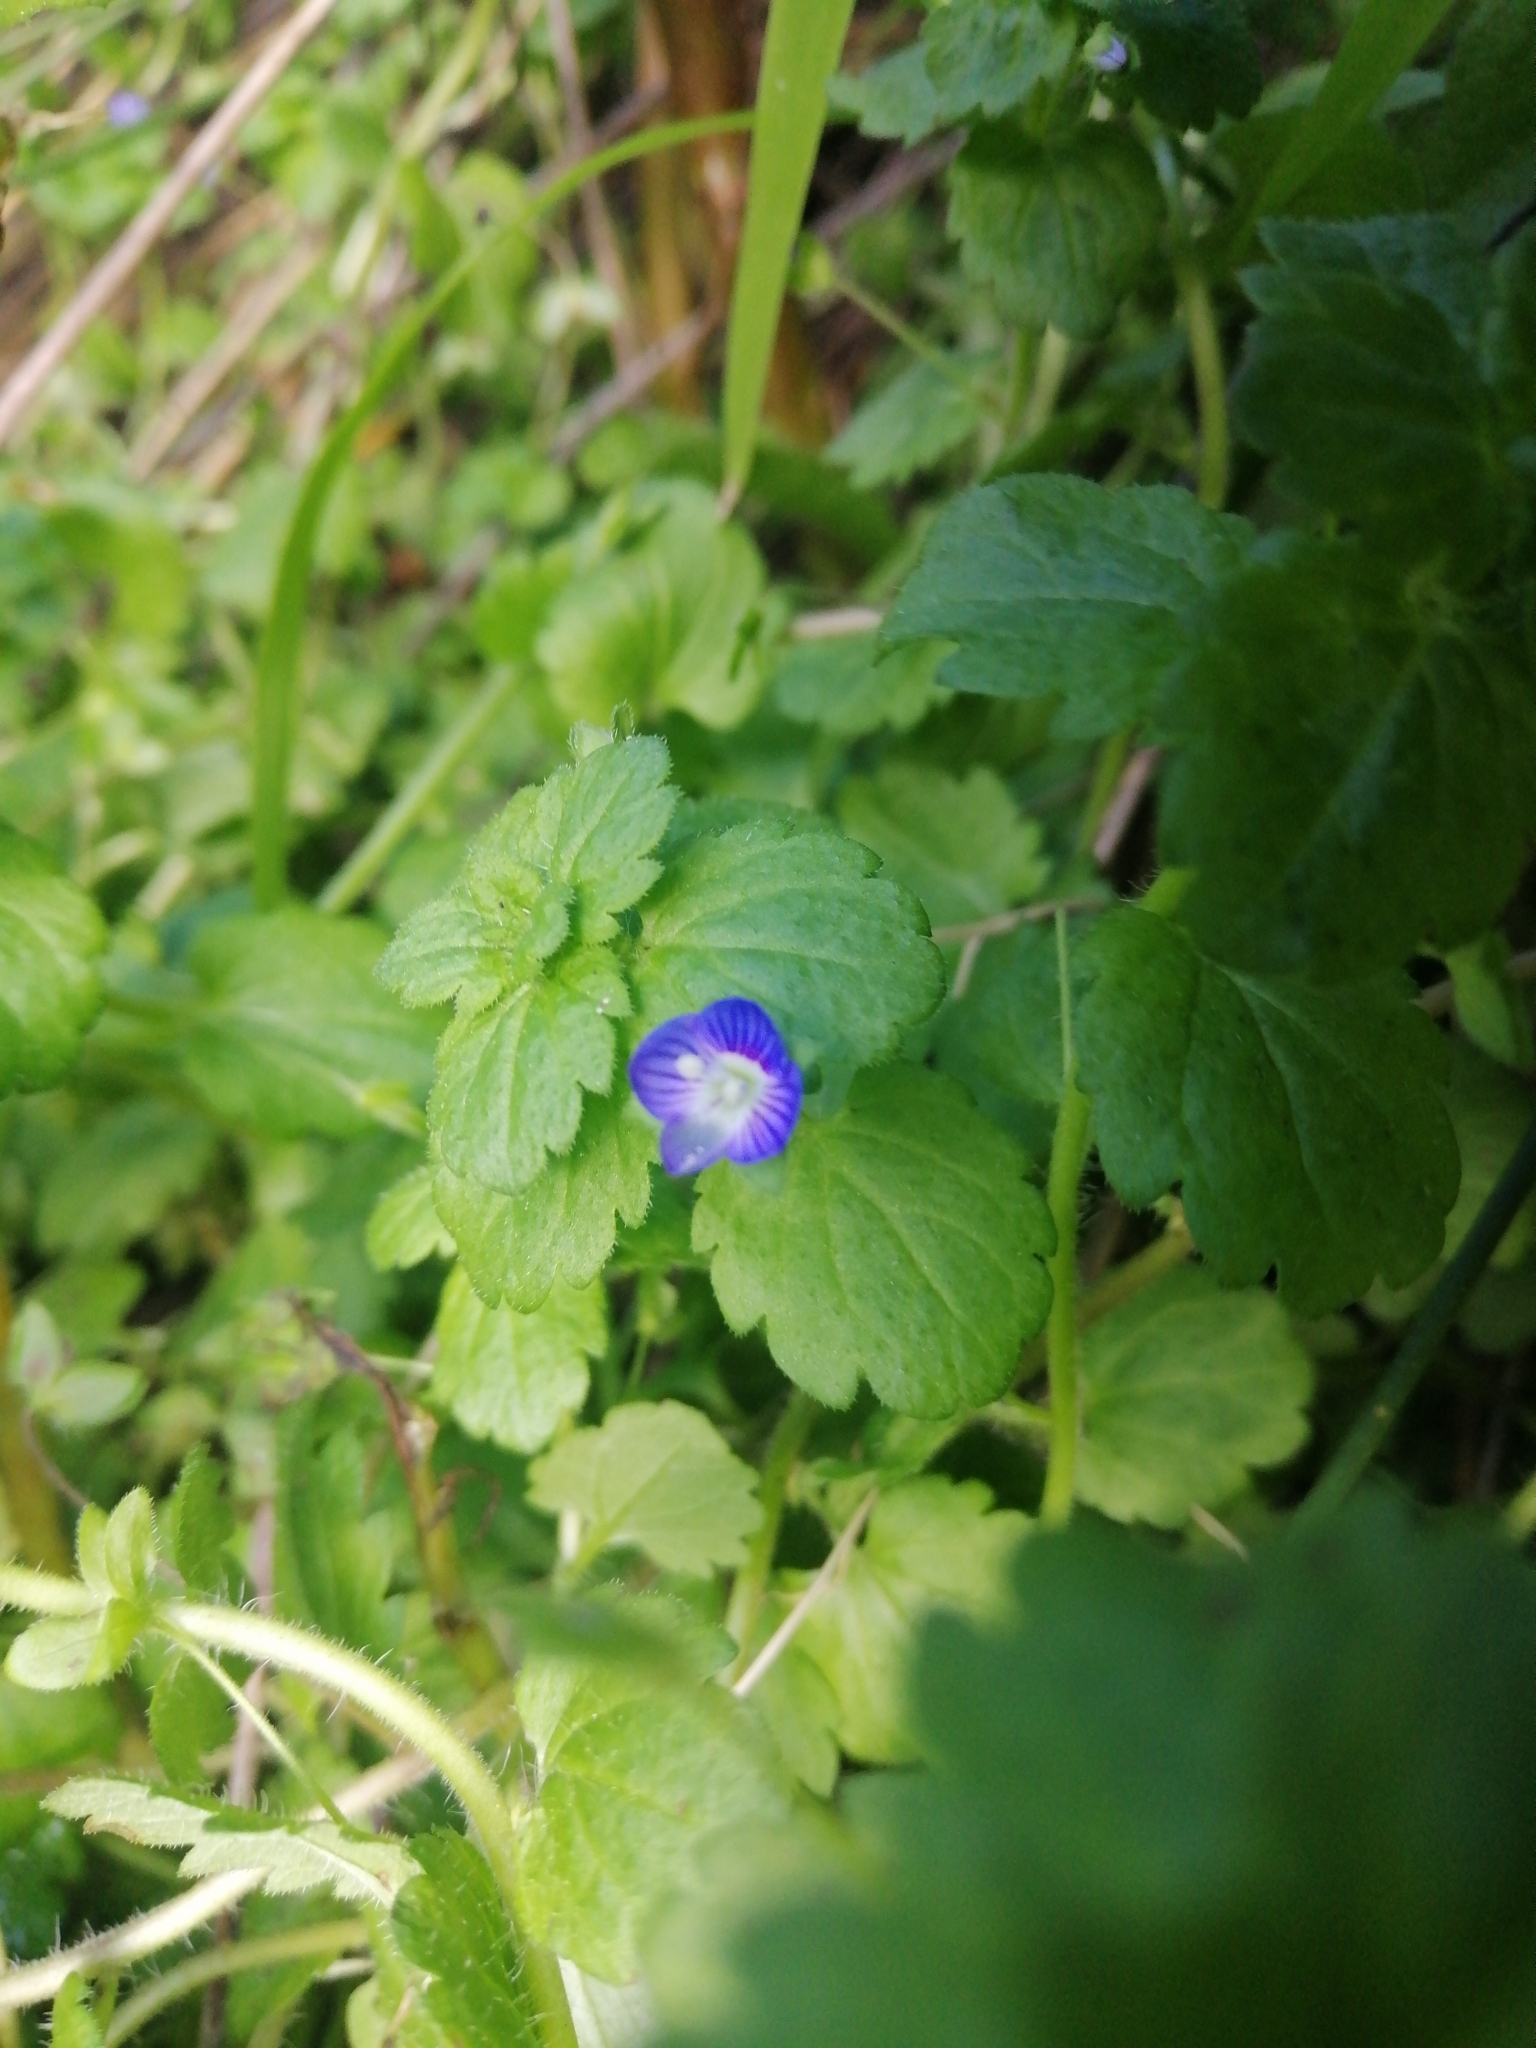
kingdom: Plantae
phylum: Tracheophyta
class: Magnoliopsida
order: Lamiales
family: Plantaginaceae
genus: Veronica
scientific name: Veronica persica
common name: Common field-speedwell
